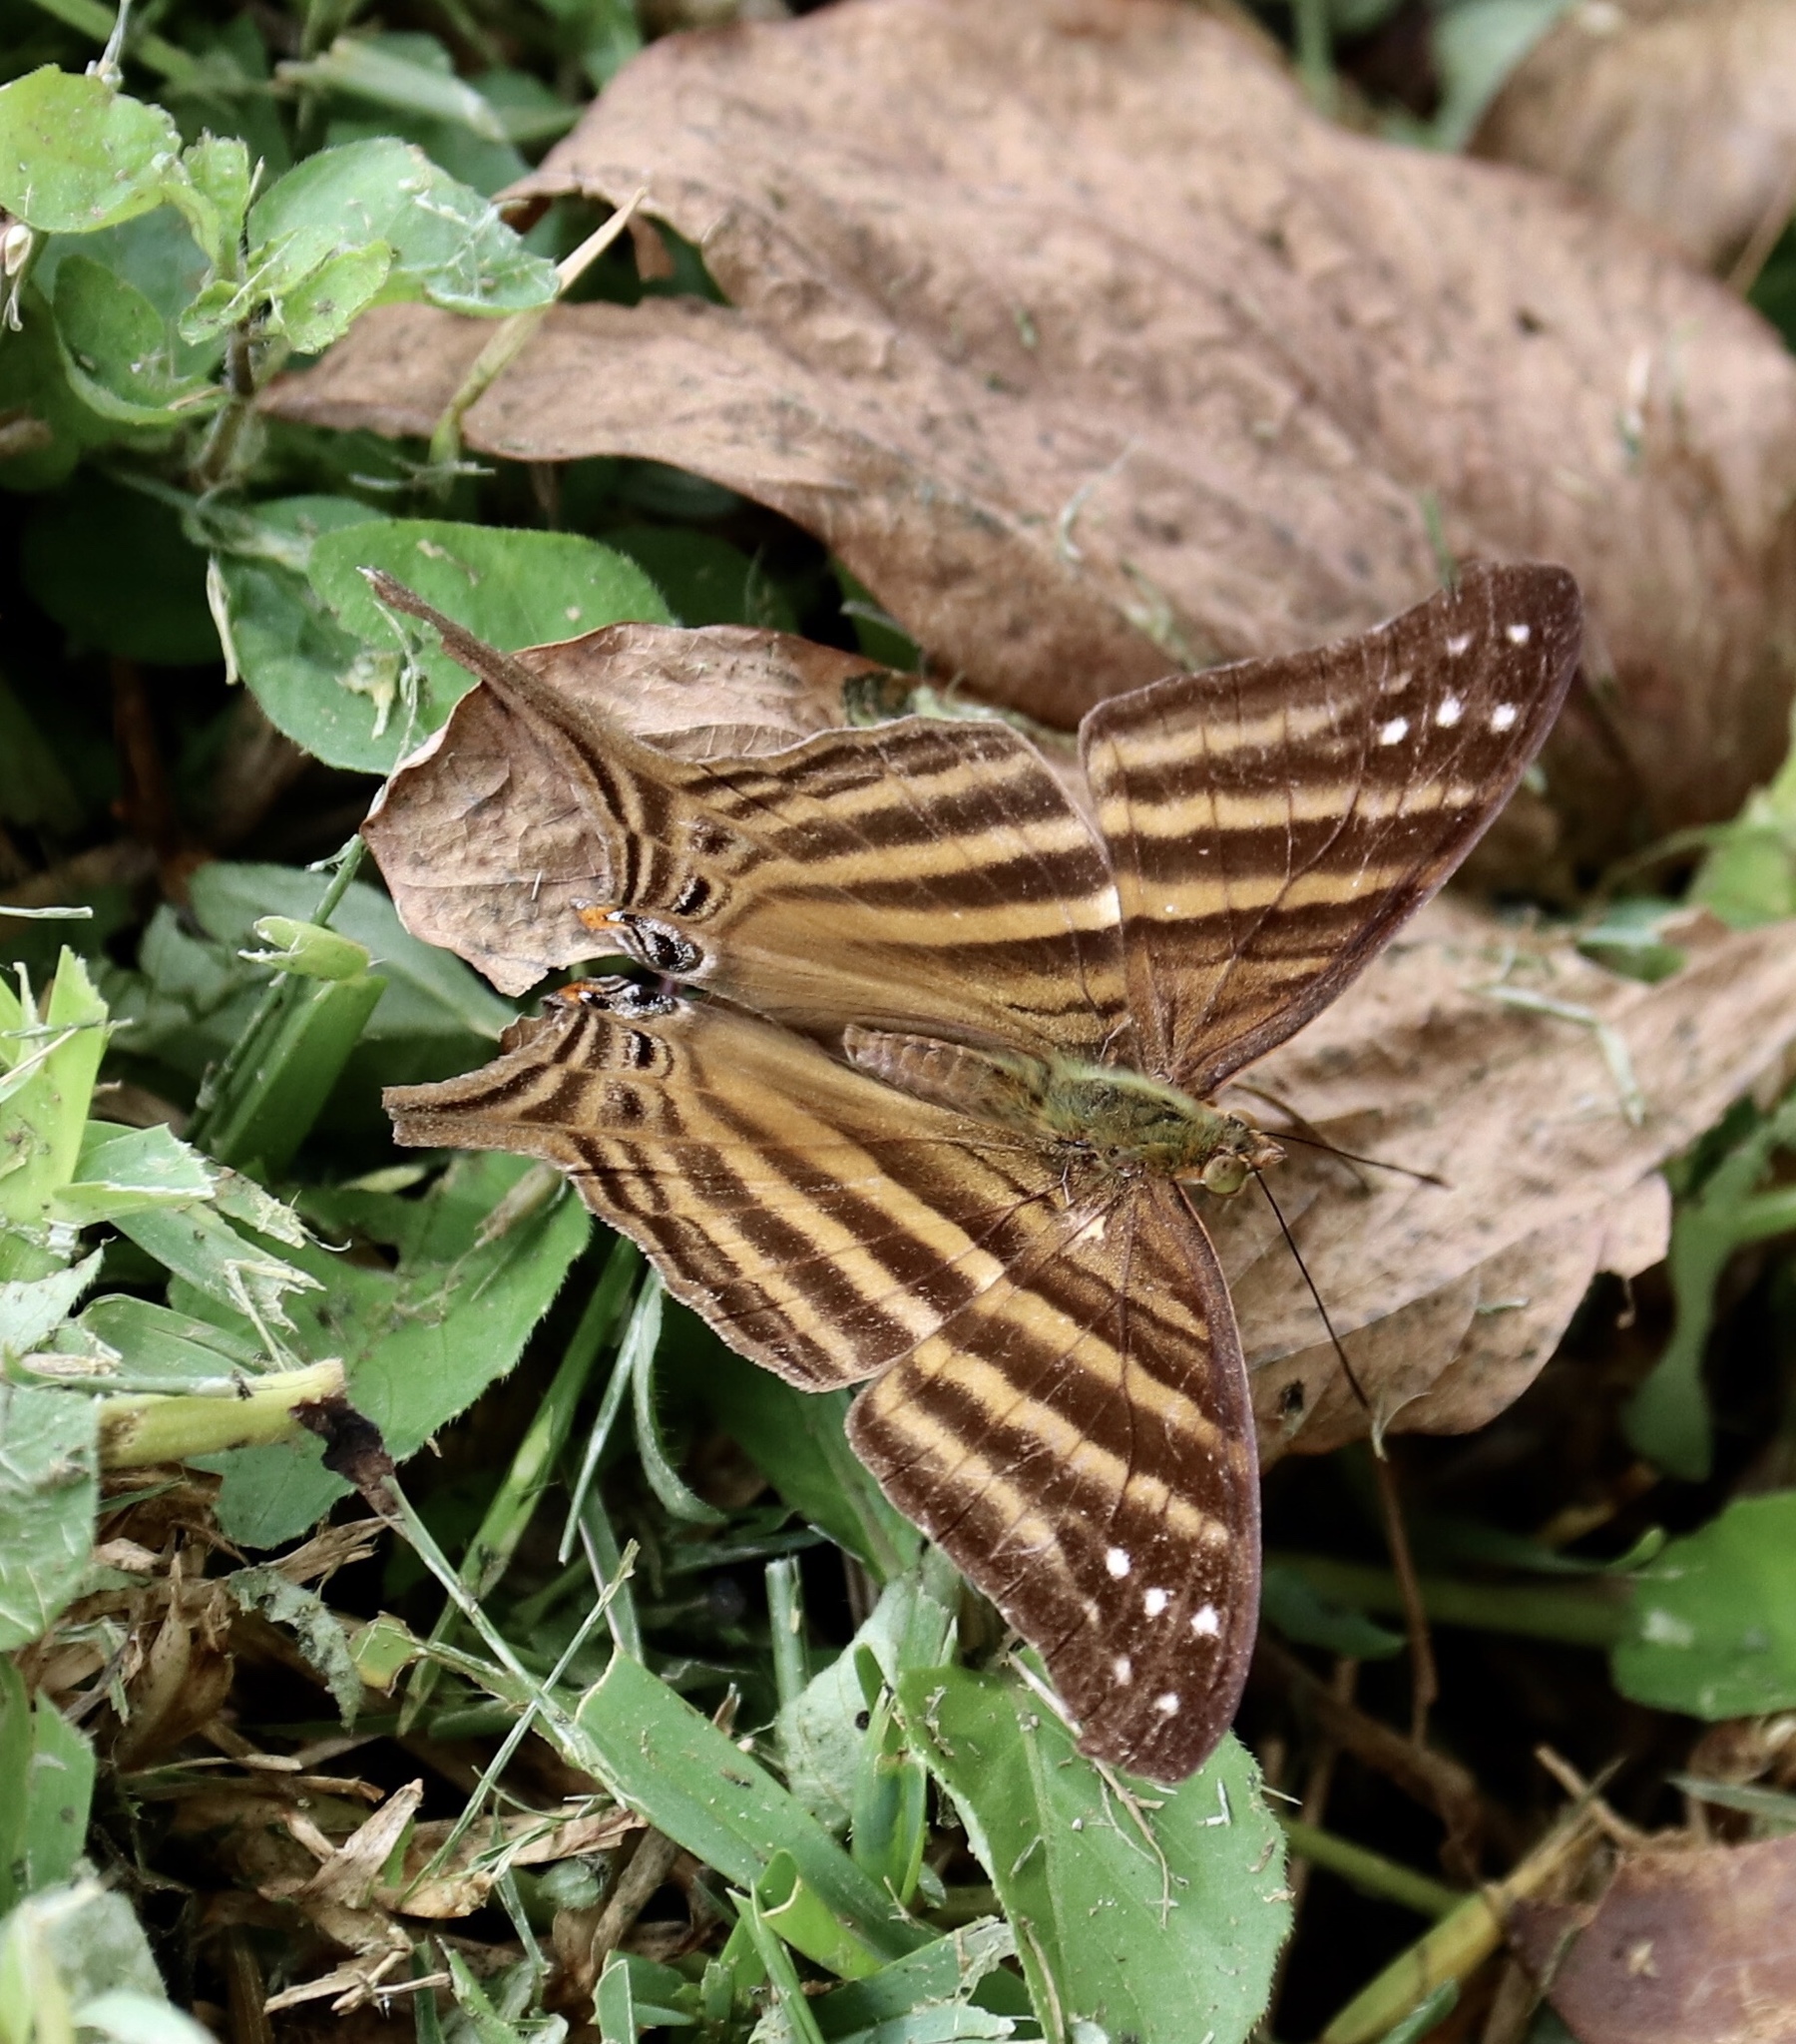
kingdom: Animalia
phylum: Arthropoda
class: Insecta
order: Lepidoptera
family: Nymphalidae
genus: Marpesia
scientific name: Marpesia chiron
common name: Many-banded daggerwing
